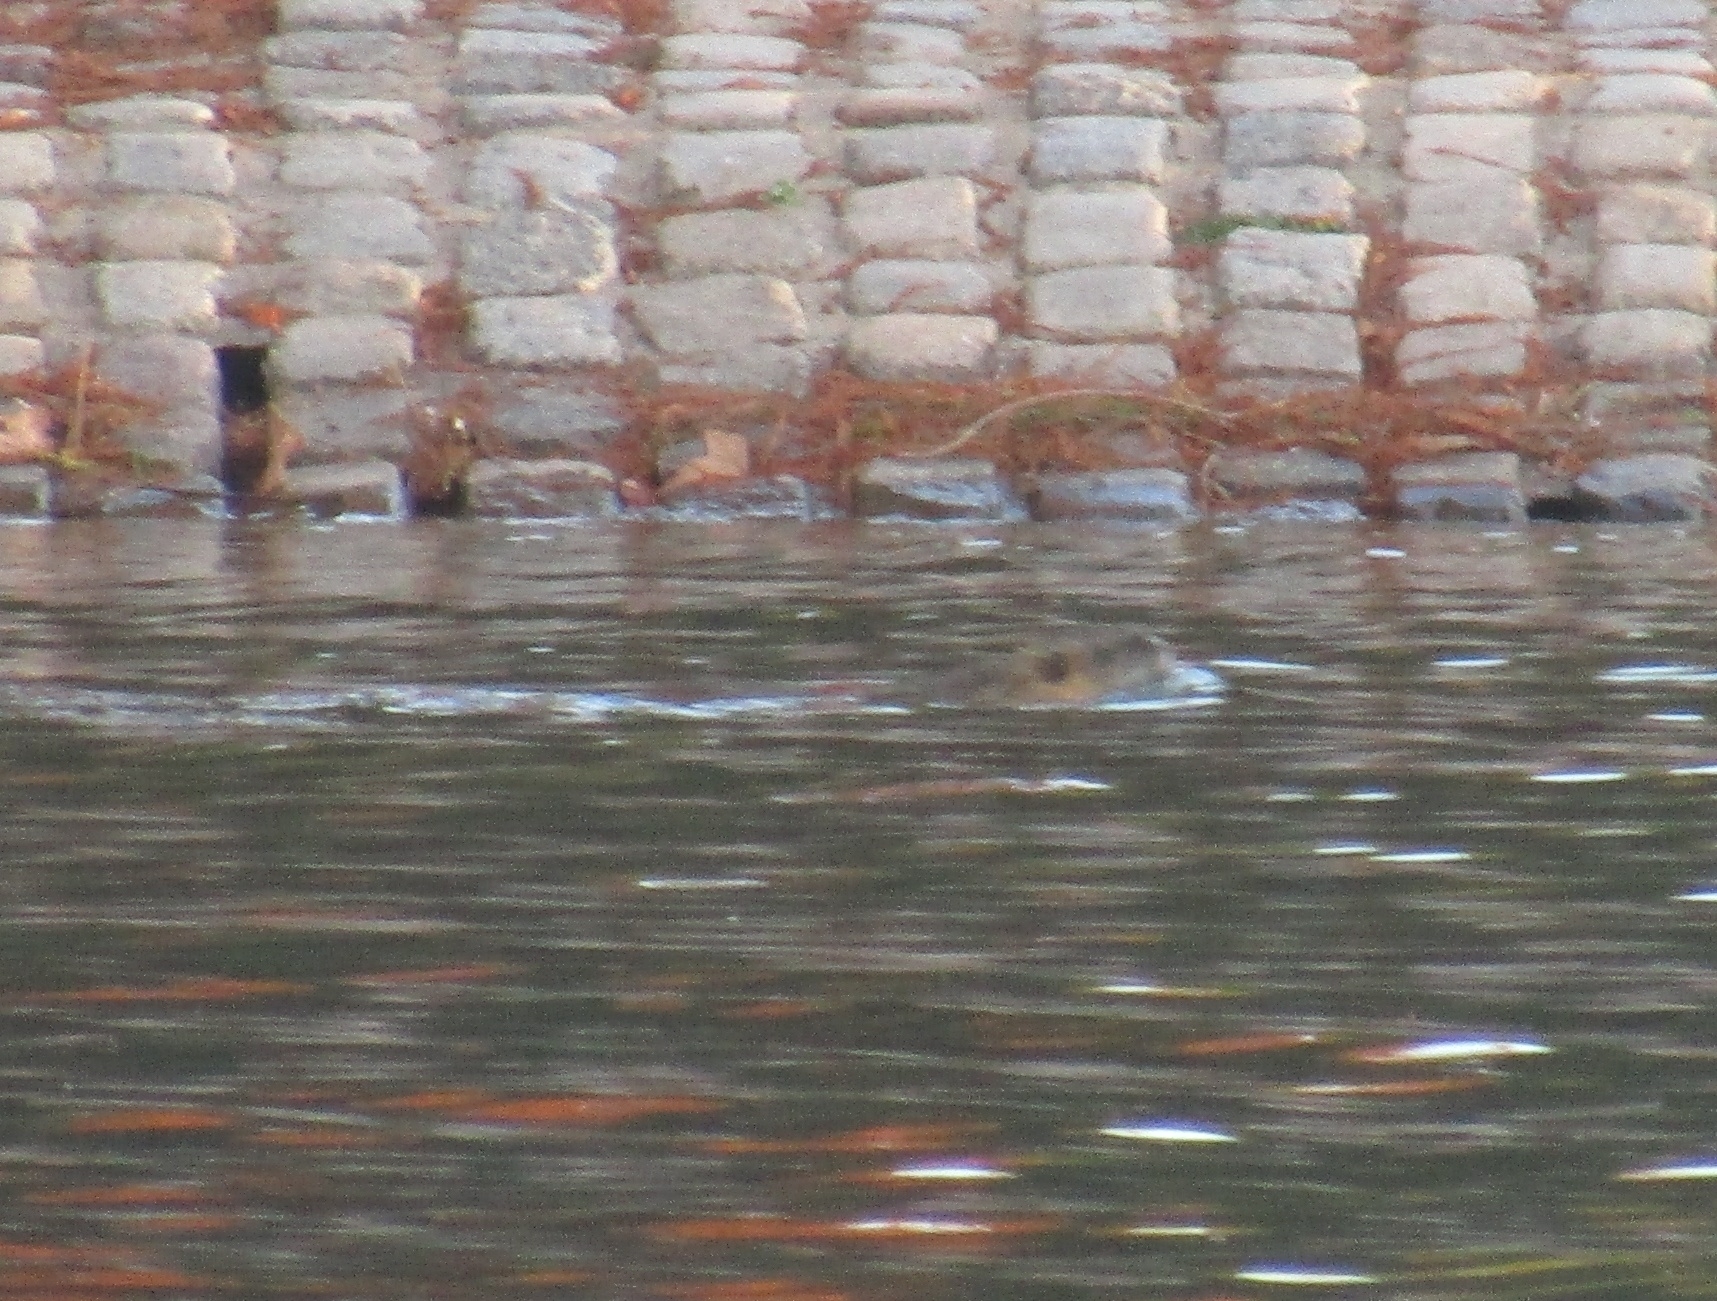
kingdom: Animalia
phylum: Chordata
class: Mammalia
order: Rodentia
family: Myocastoridae
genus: Myocastor
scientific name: Myocastor coypus
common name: Coypu
